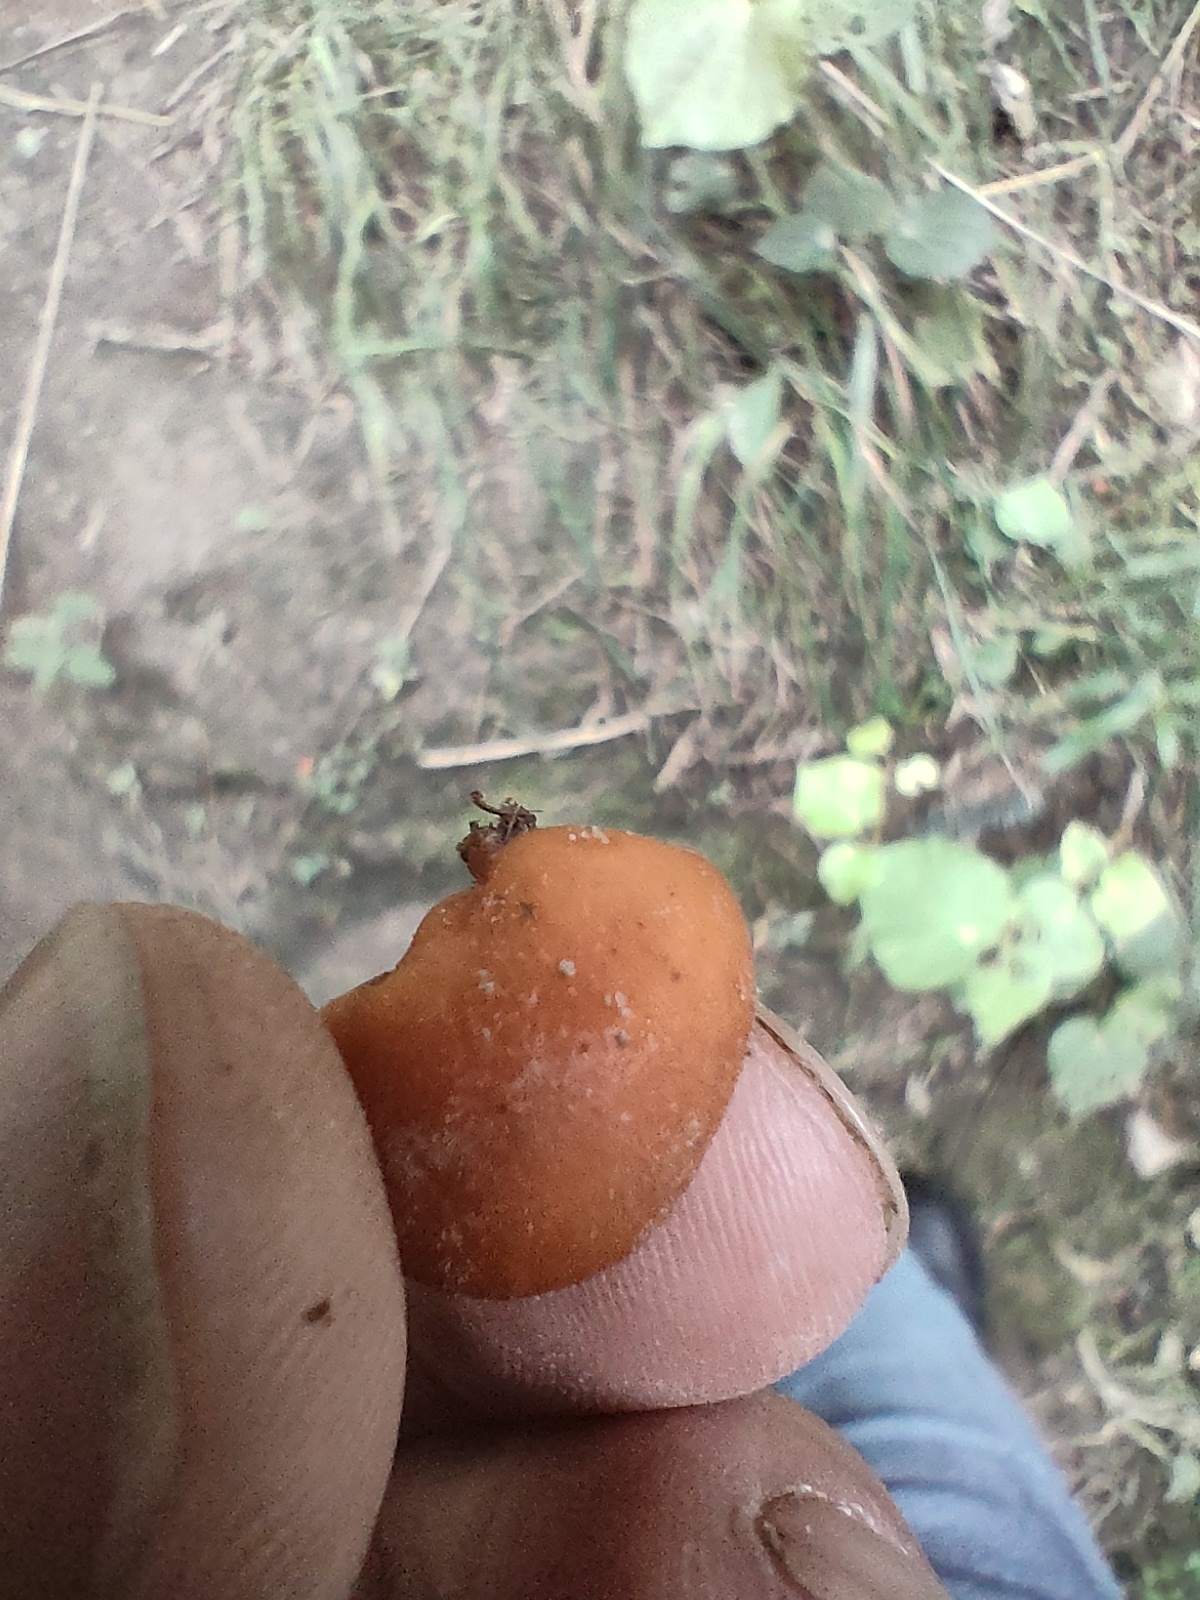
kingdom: Fungi
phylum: Basidiomycota
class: Agaricomycetes
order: Agaricales
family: Macrocystidiaceae
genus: Macrocystidia
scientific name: Macrocystidia reducta
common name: The fishy pouch
